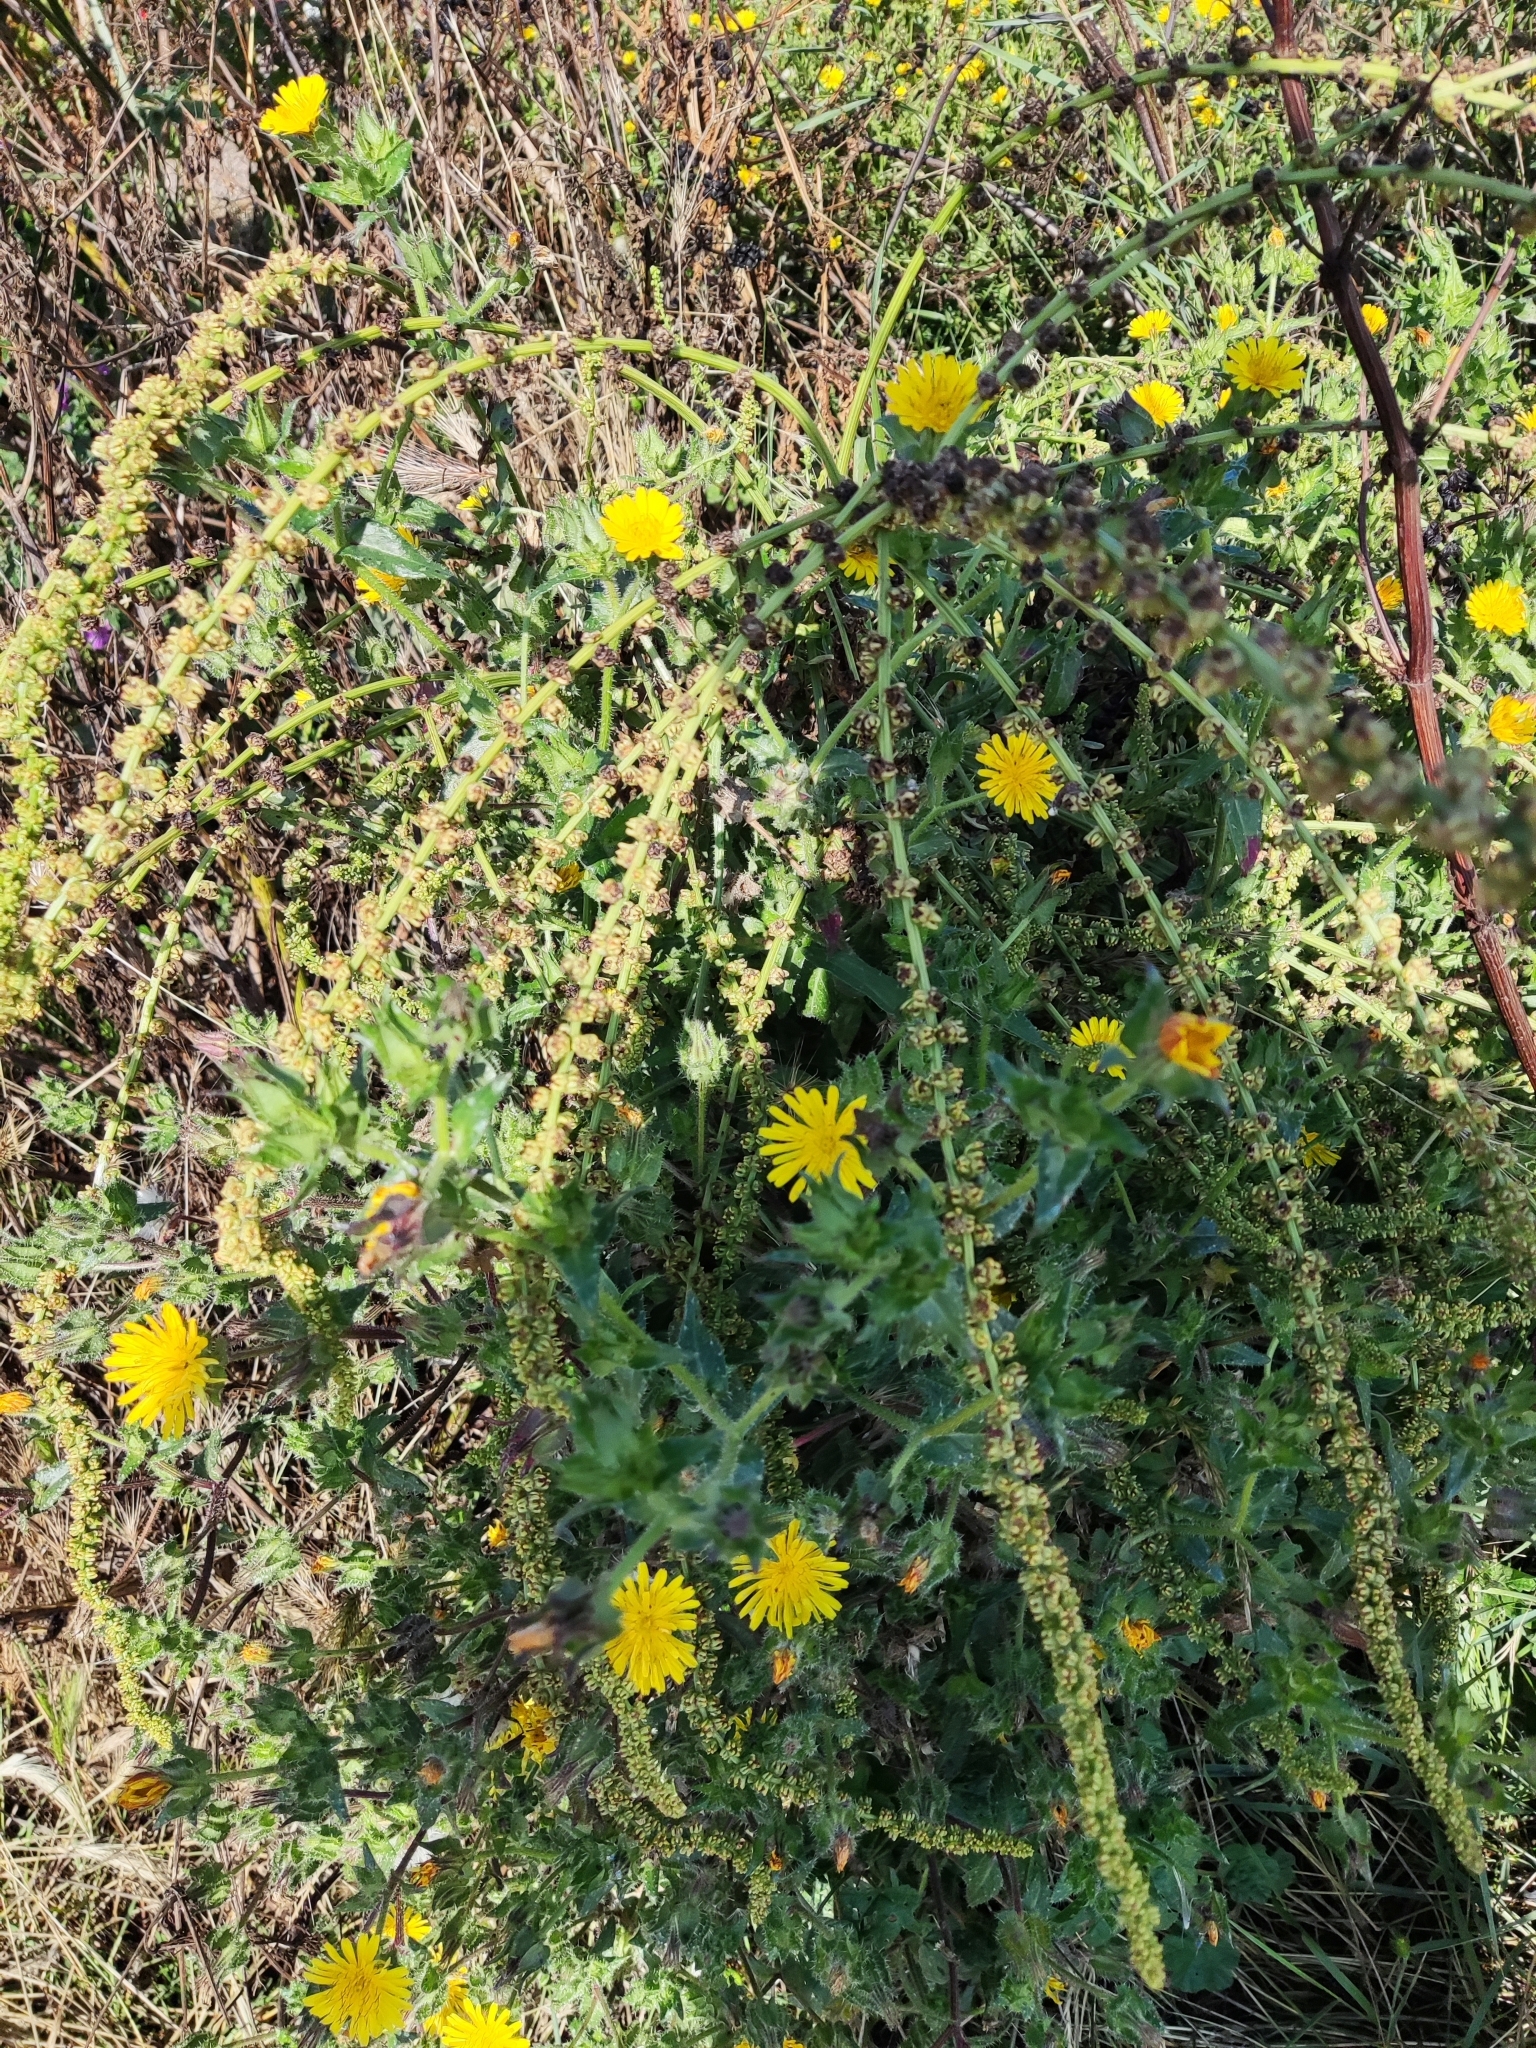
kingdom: Plantae
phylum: Tracheophyta
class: Magnoliopsida
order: Asterales
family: Asteraceae
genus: Helminthotheca
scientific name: Helminthotheca echioides
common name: Ox-tongue
